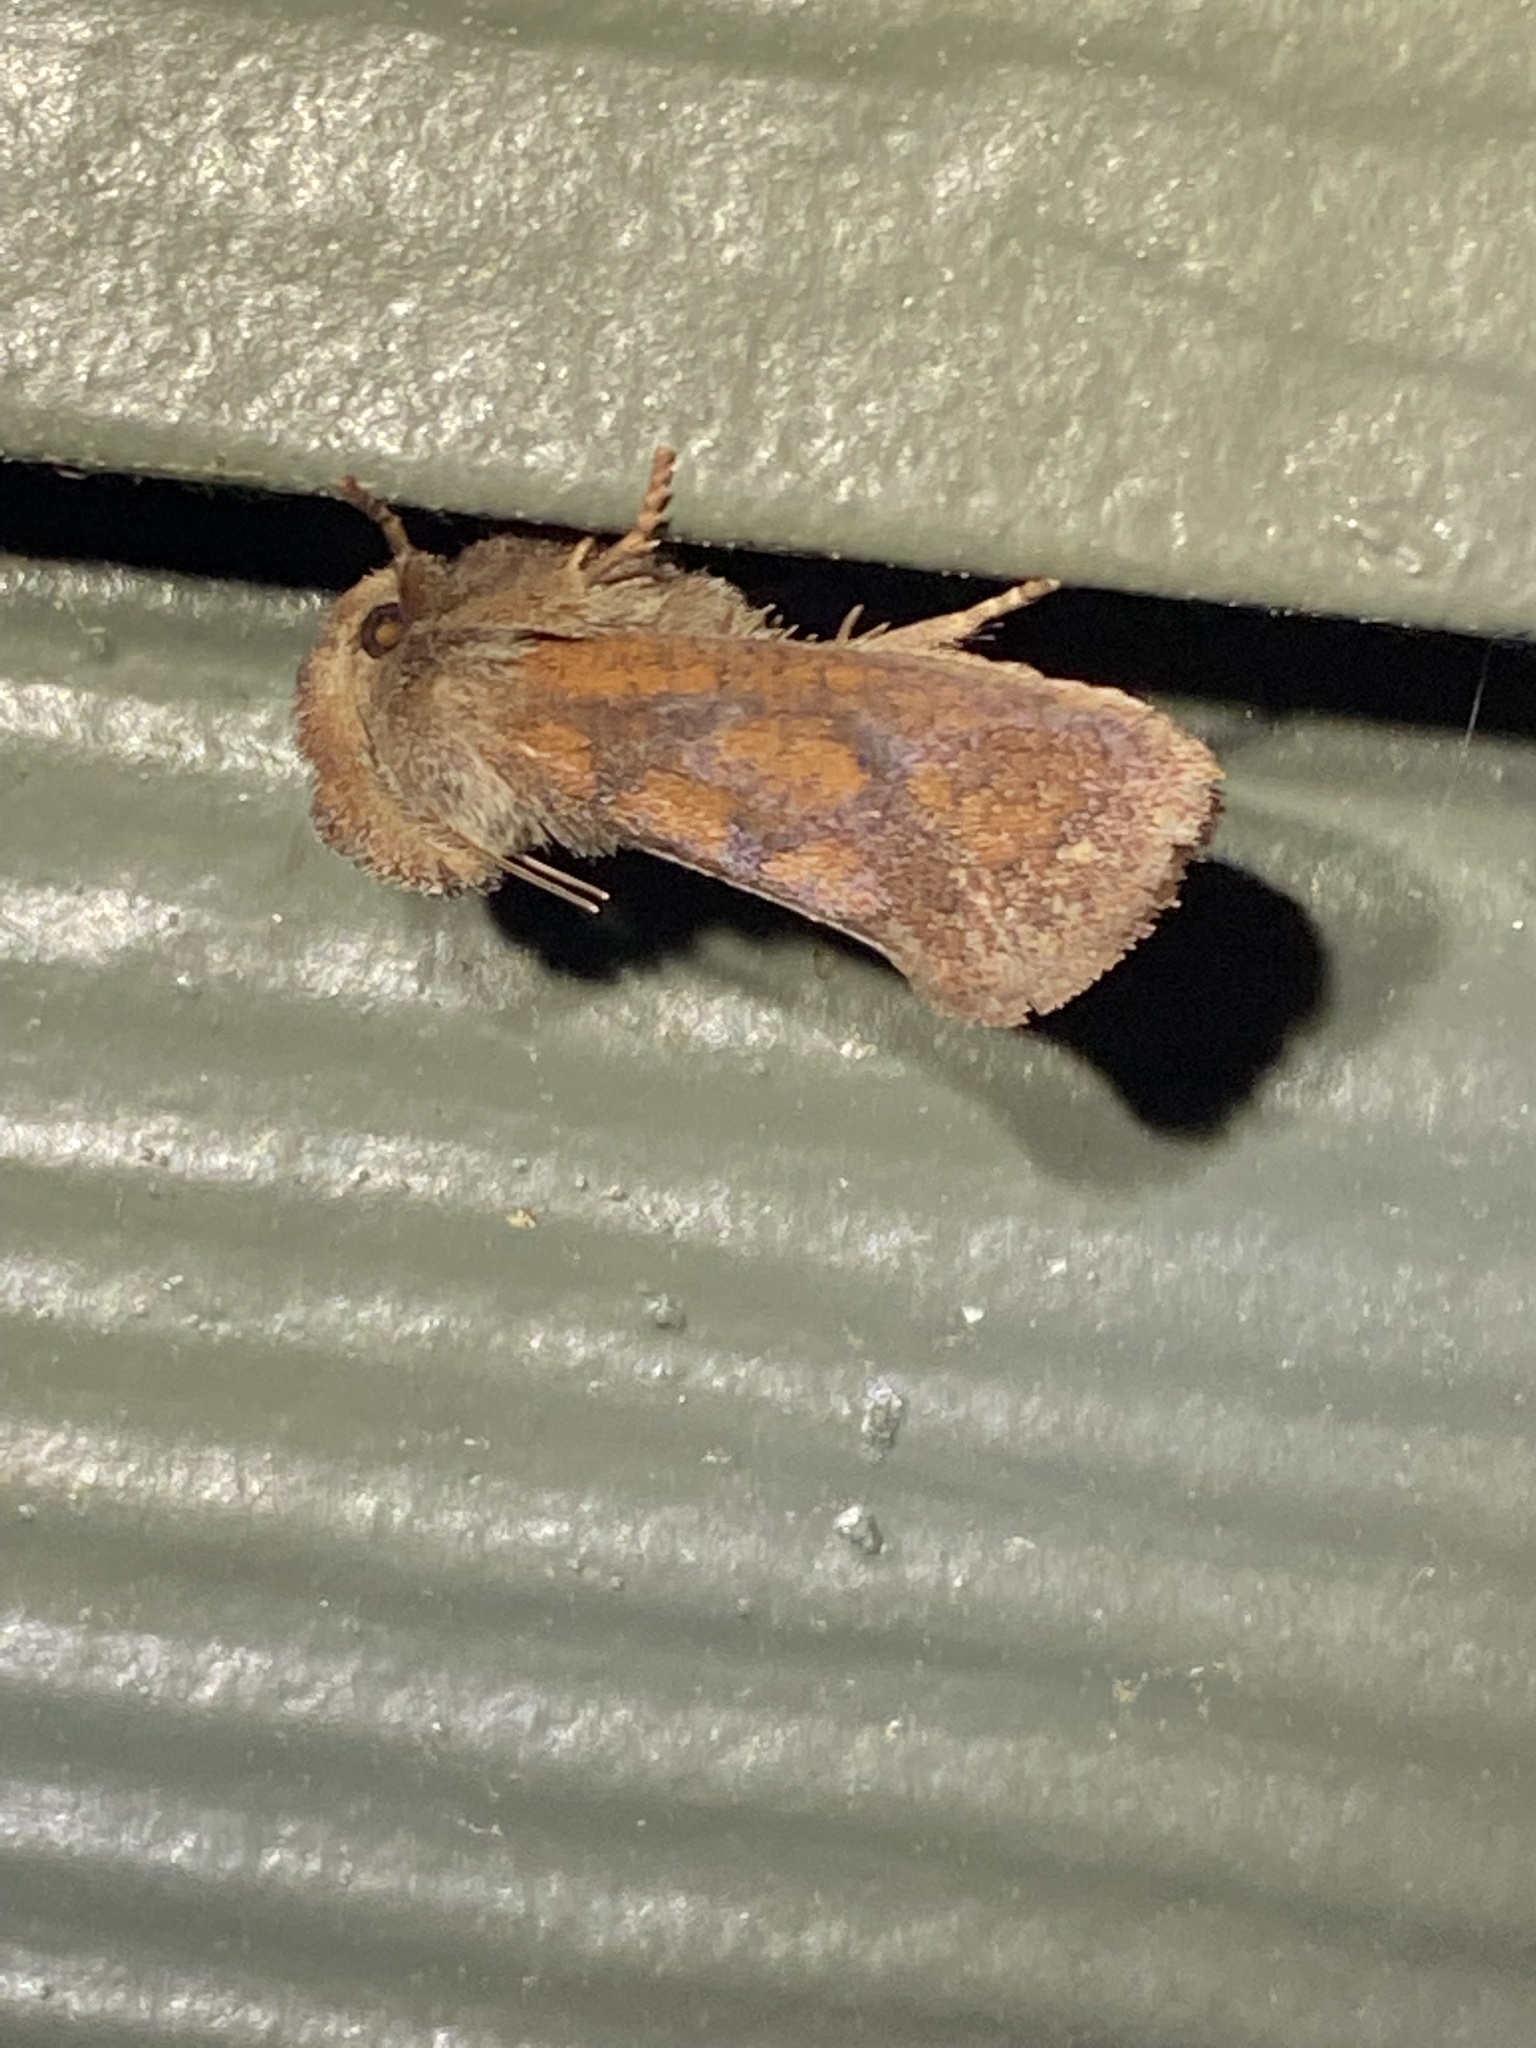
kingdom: Animalia
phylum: Arthropoda
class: Insecta
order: Lepidoptera
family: Tineidae
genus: Acrolophus
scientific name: Acrolophus plumifrontella
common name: Eastern grass tubeworm moth
